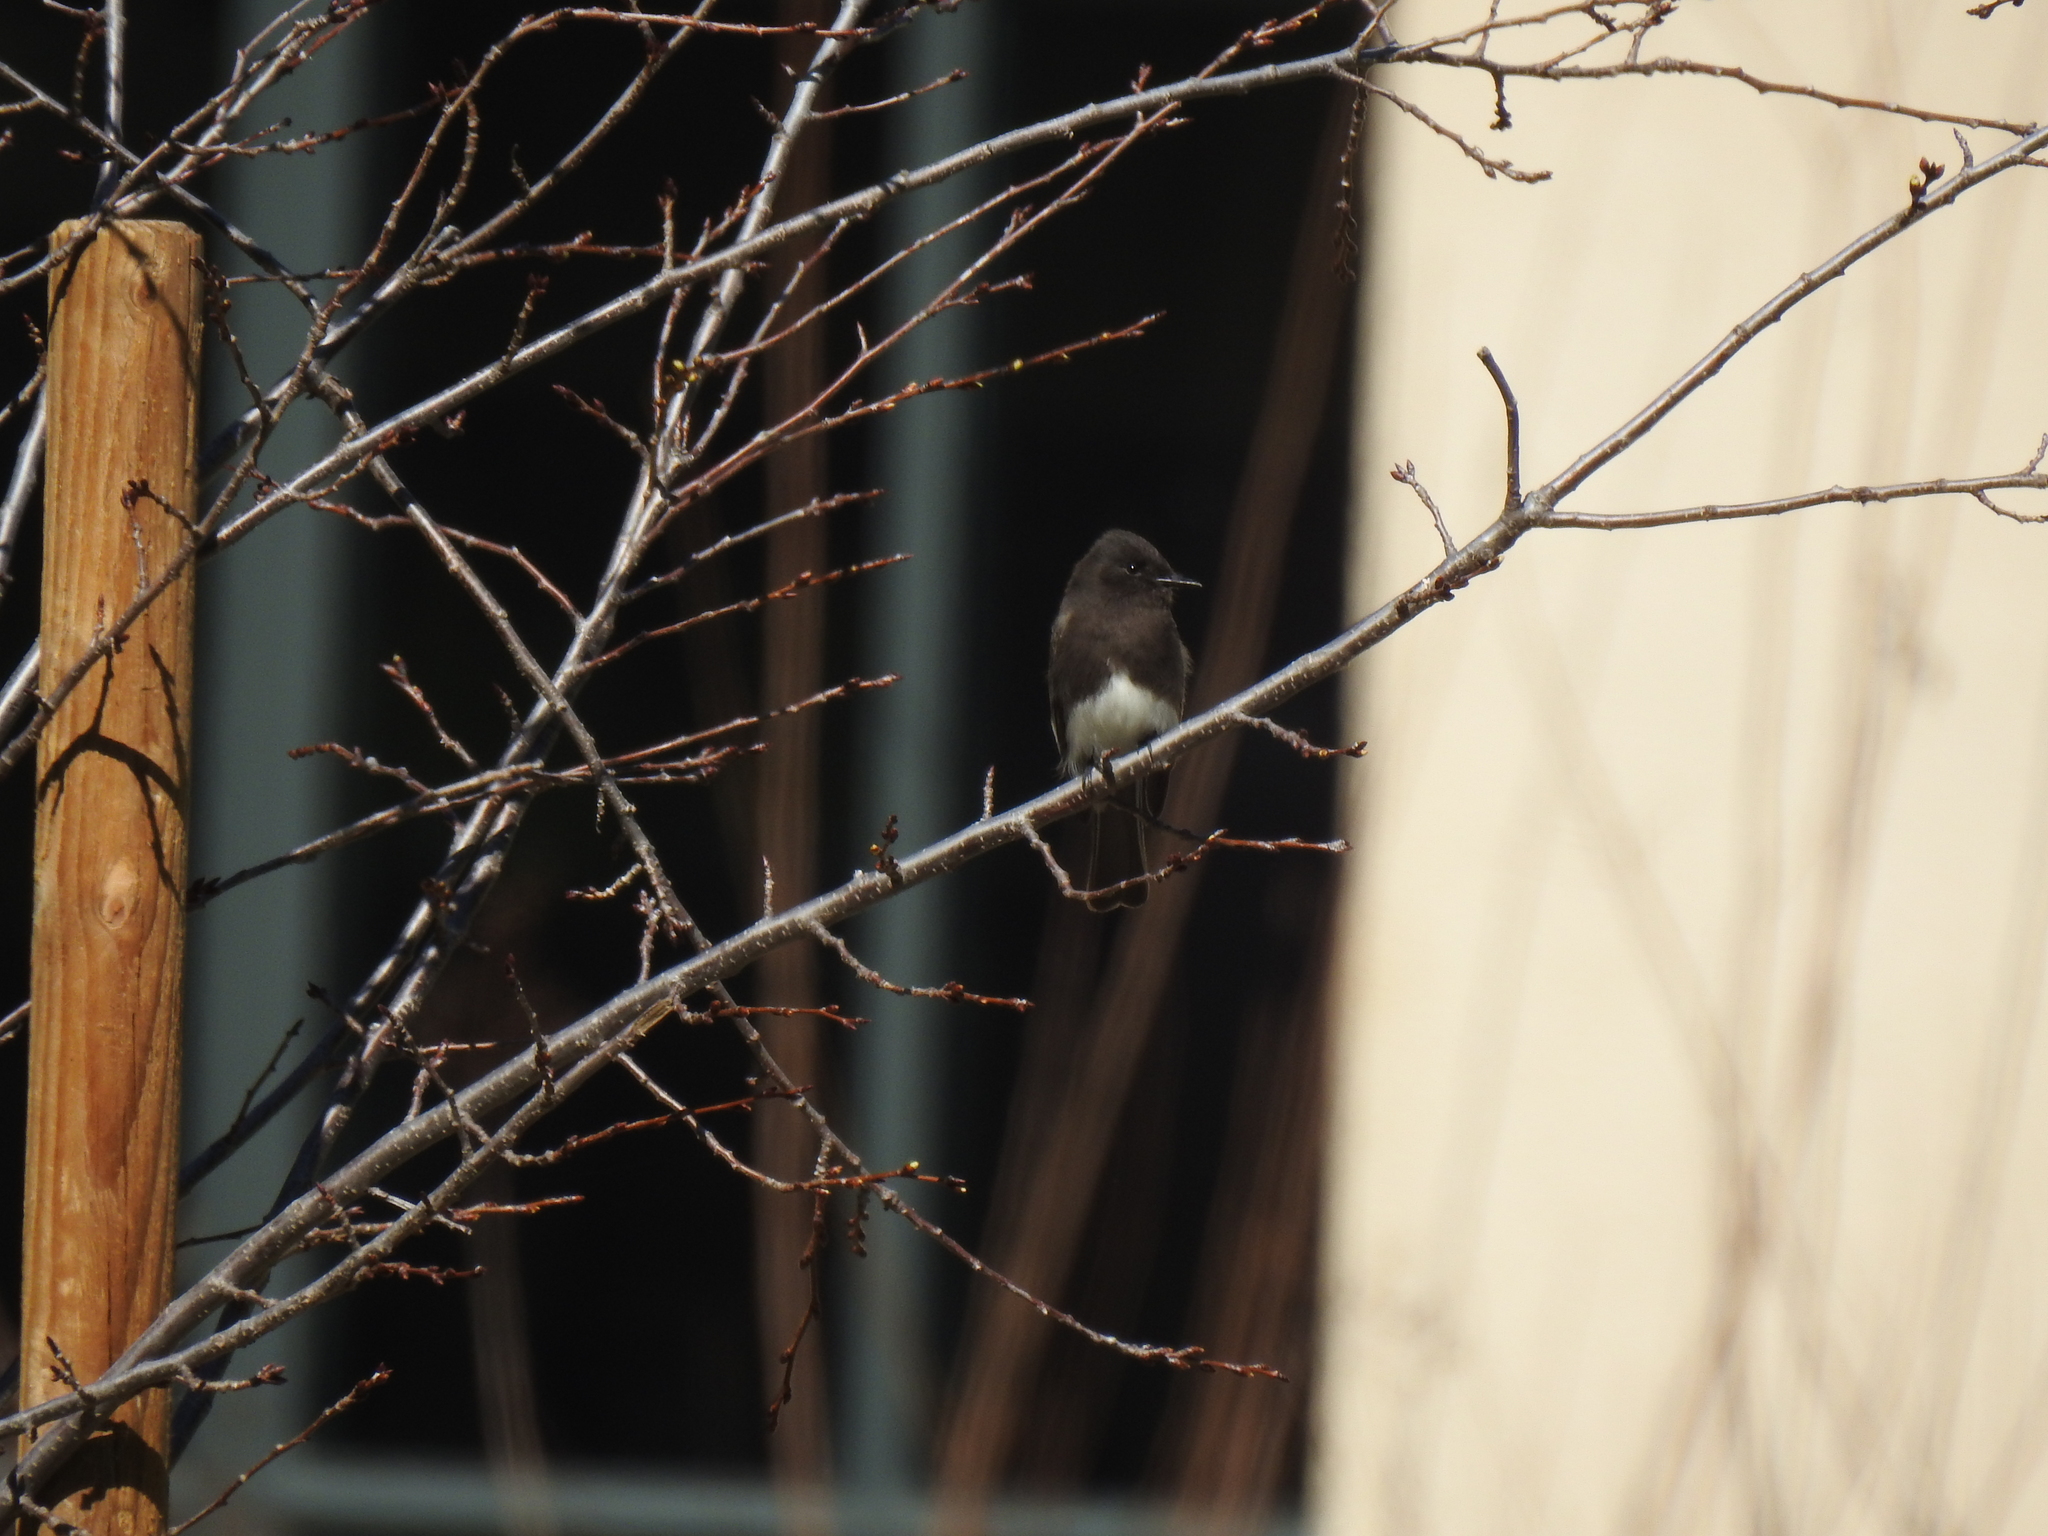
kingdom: Animalia
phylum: Chordata
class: Aves
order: Passeriformes
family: Tyrannidae
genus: Sayornis
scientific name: Sayornis nigricans
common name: Black phoebe
